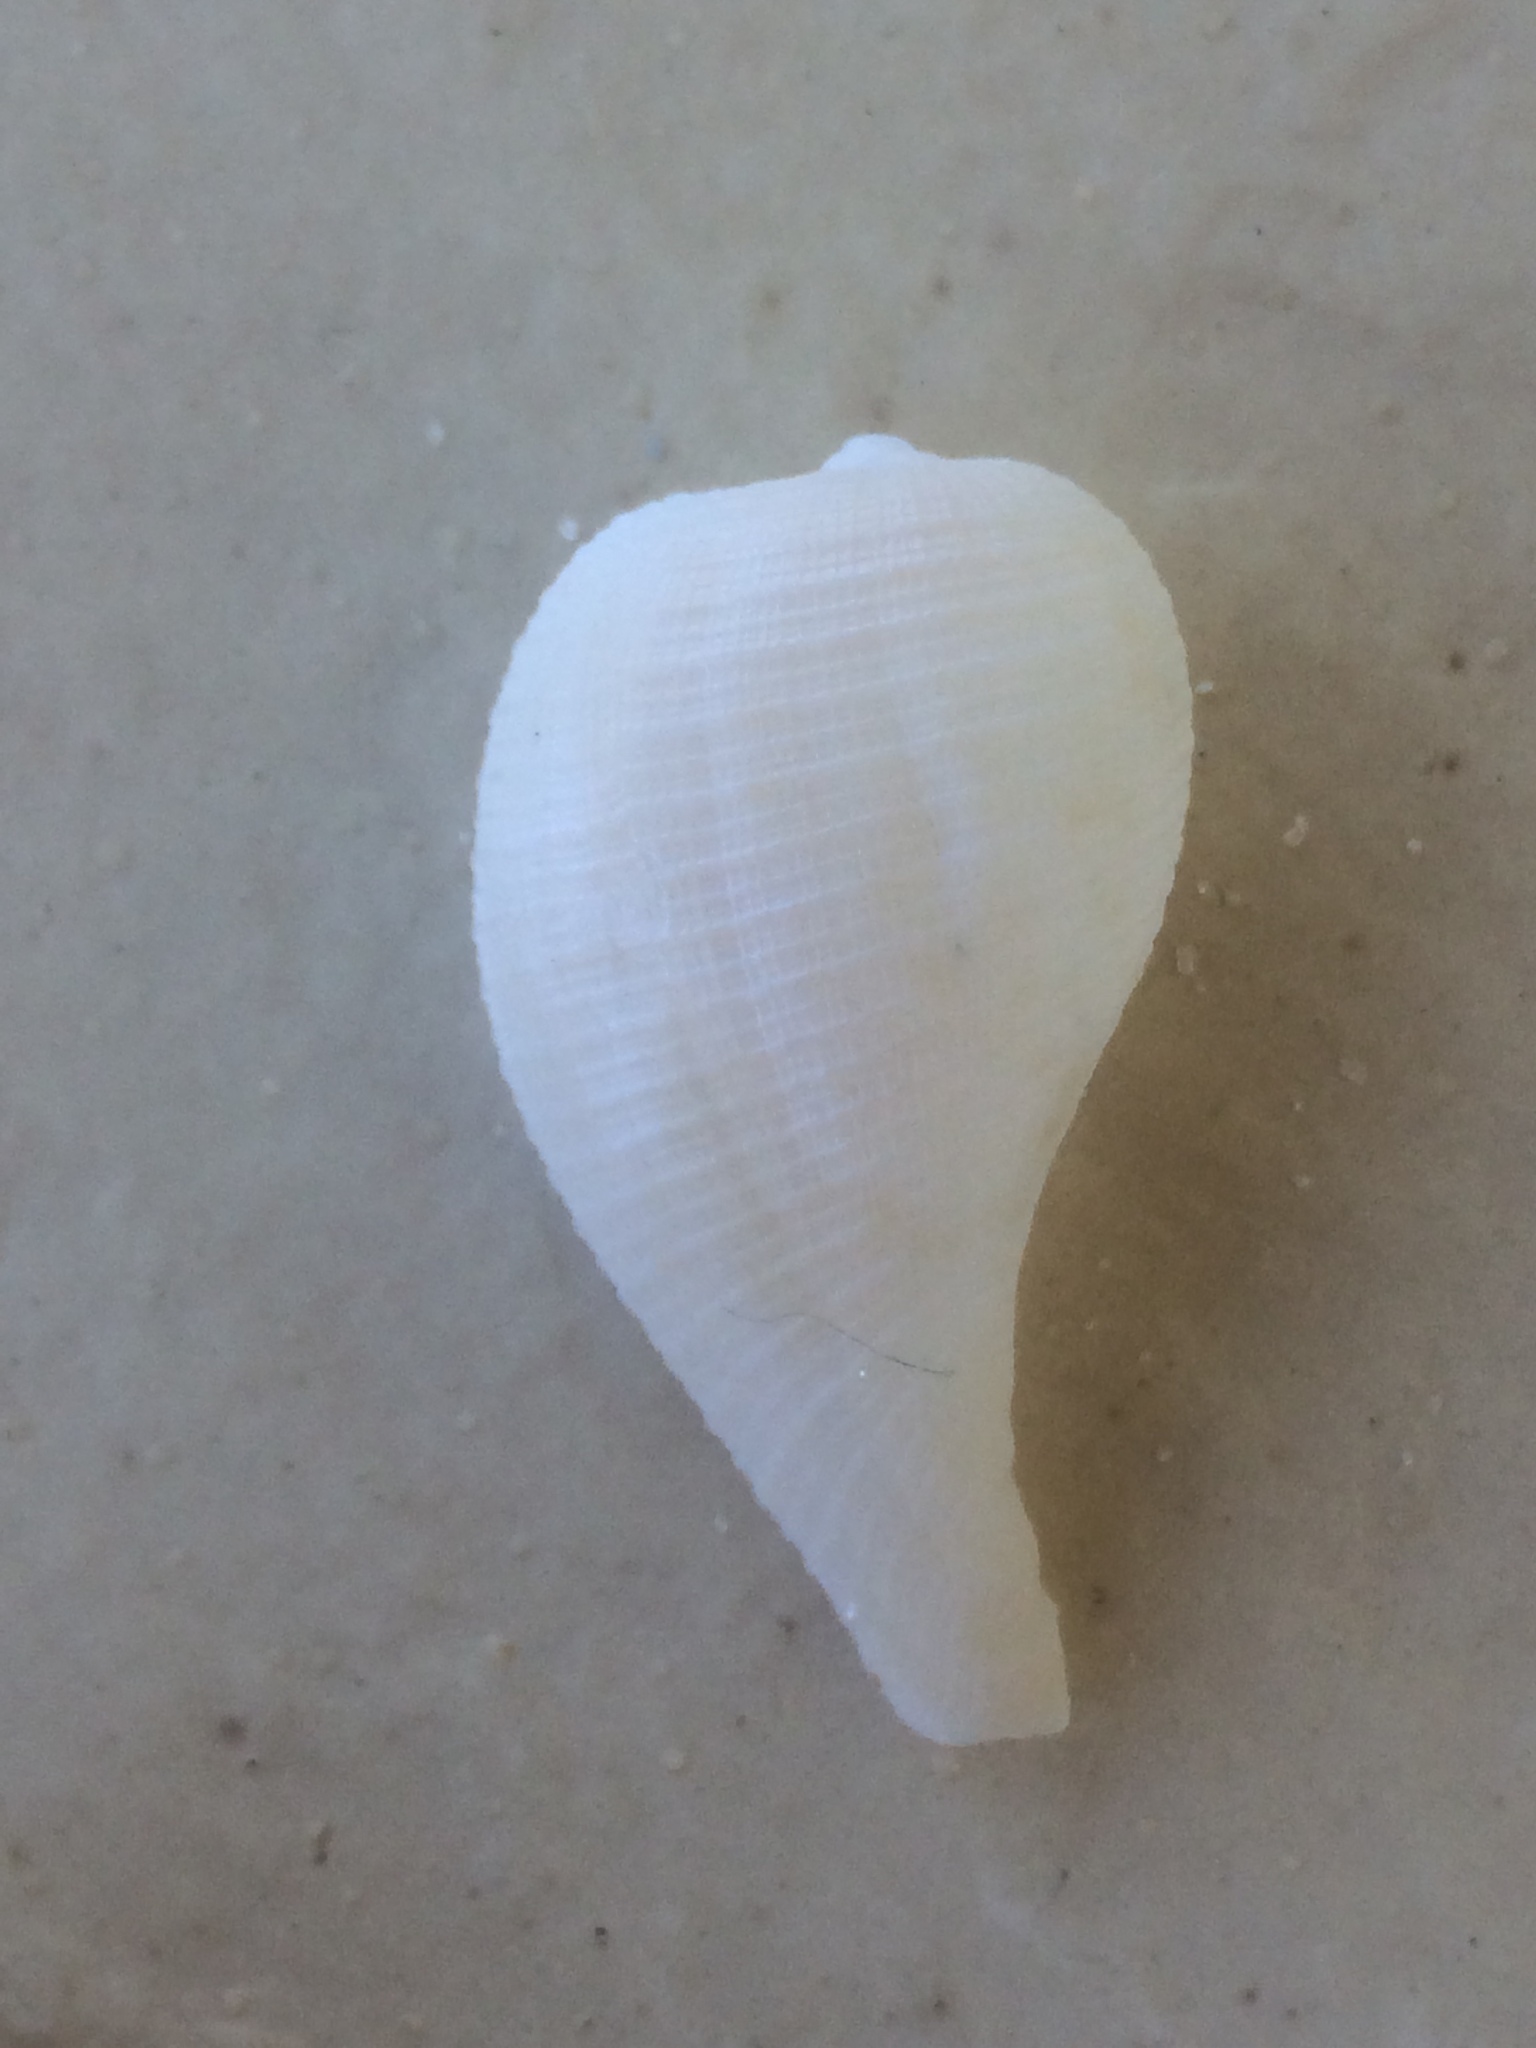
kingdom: Animalia
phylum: Mollusca
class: Gastropoda
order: Littorinimorpha
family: Ficidae
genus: Ficus
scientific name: Ficus papyratia
